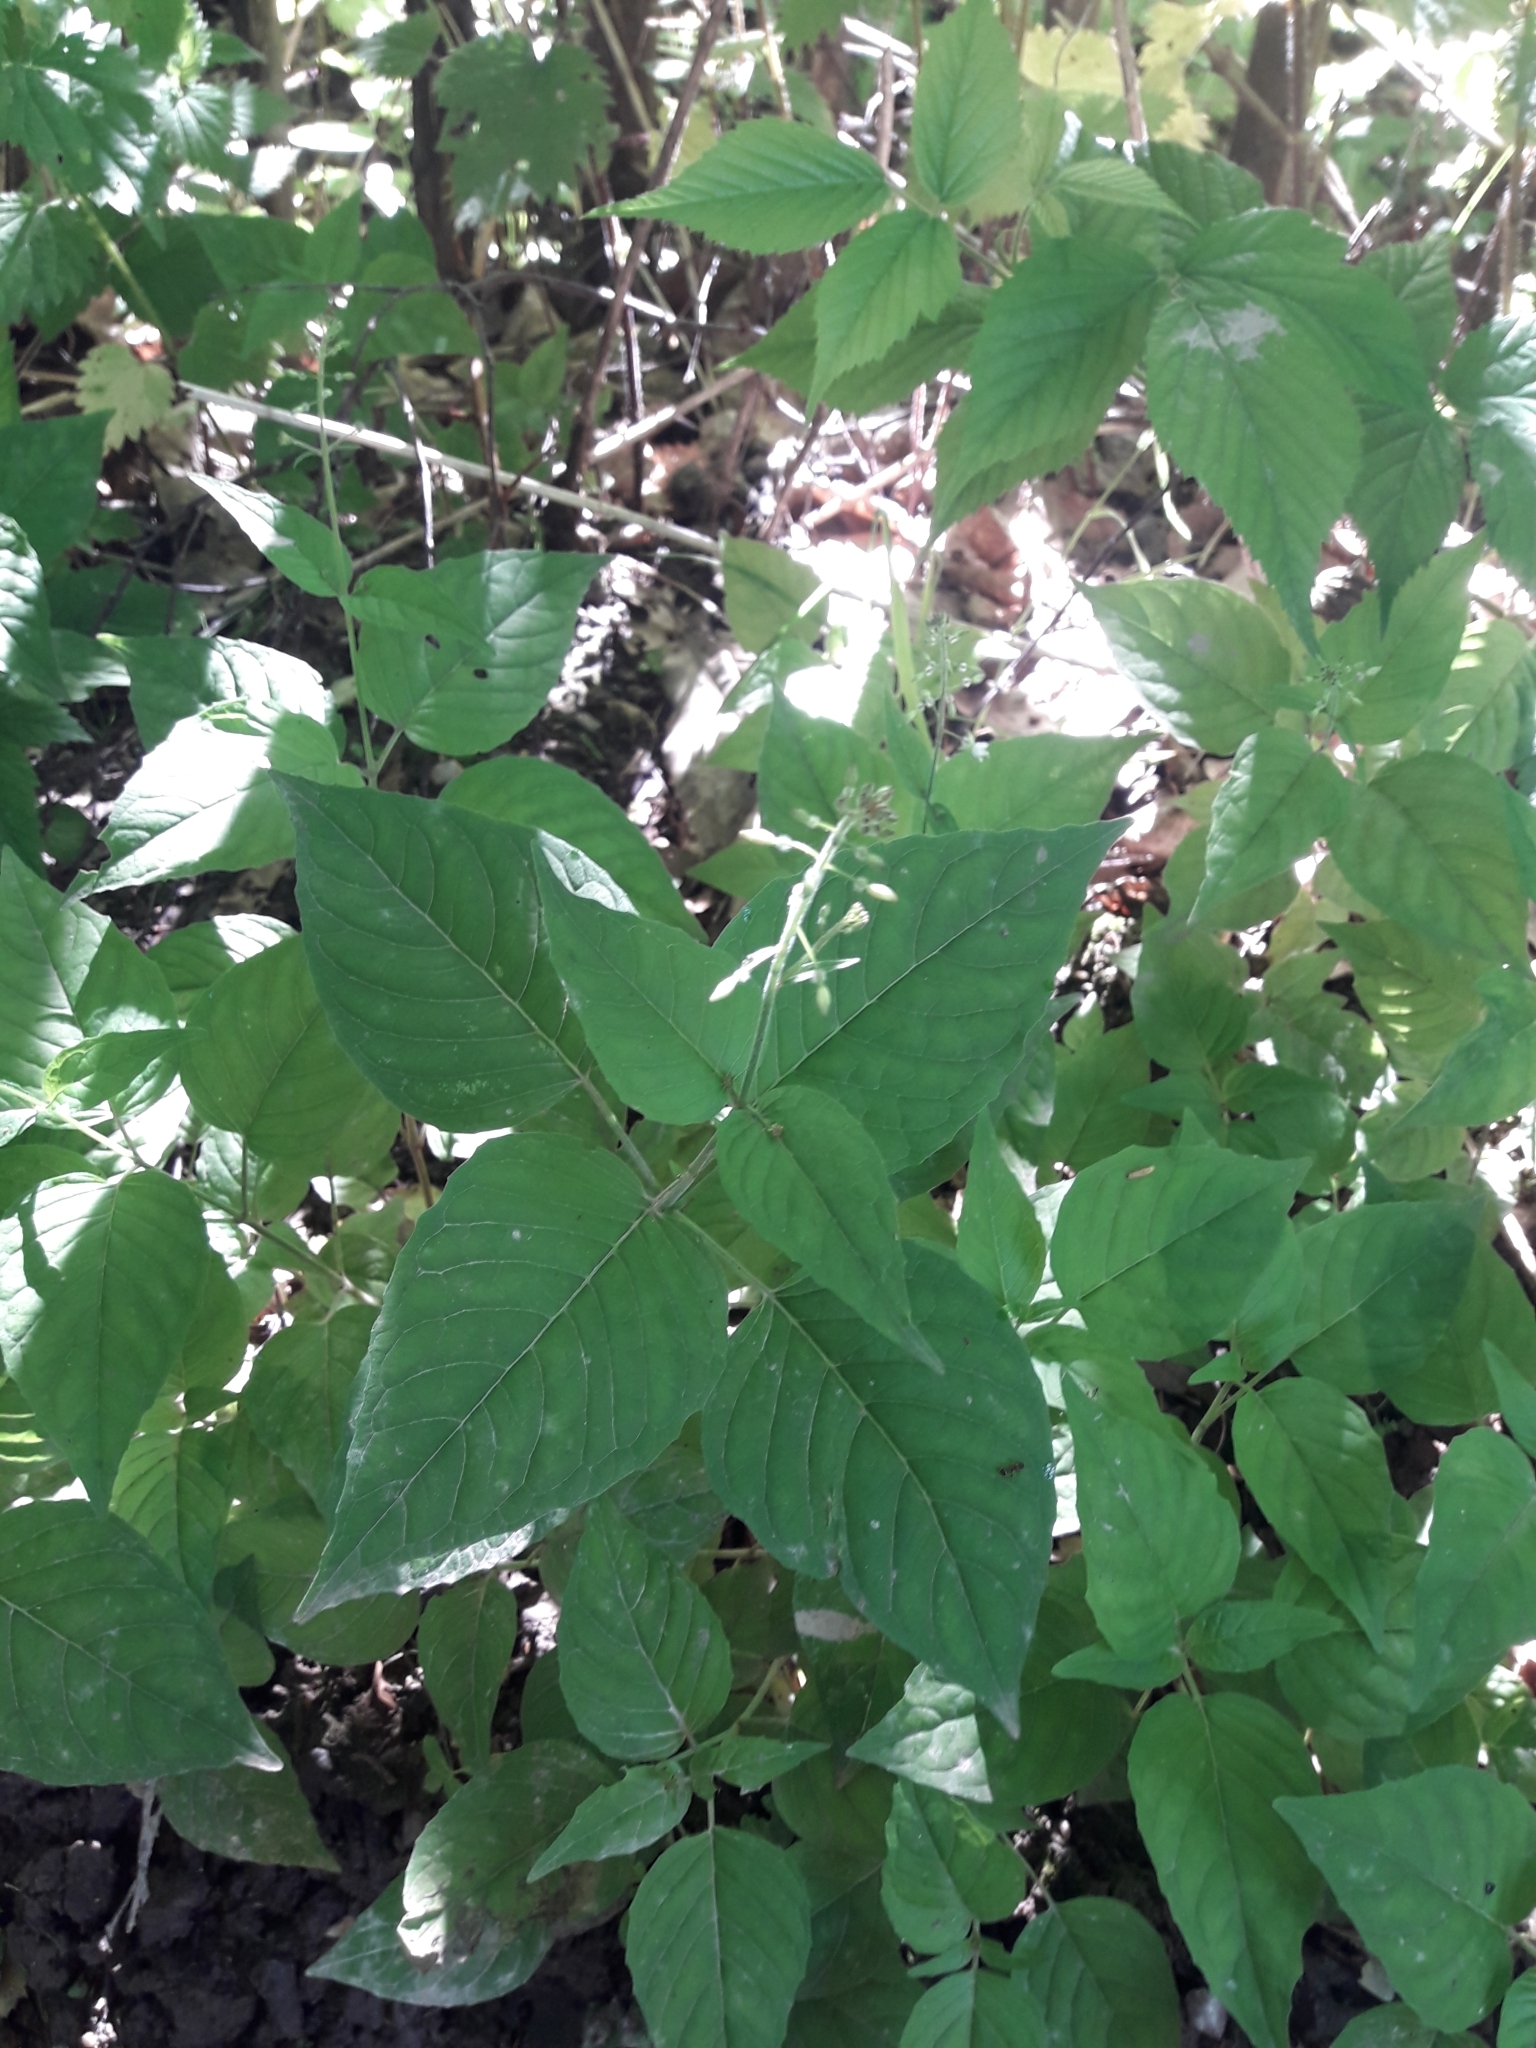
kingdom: Plantae
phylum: Tracheophyta
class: Magnoliopsida
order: Myrtales
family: Onagraceae
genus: Circaea
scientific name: Circaea lutetiana
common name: Enchanter's-nightshade
